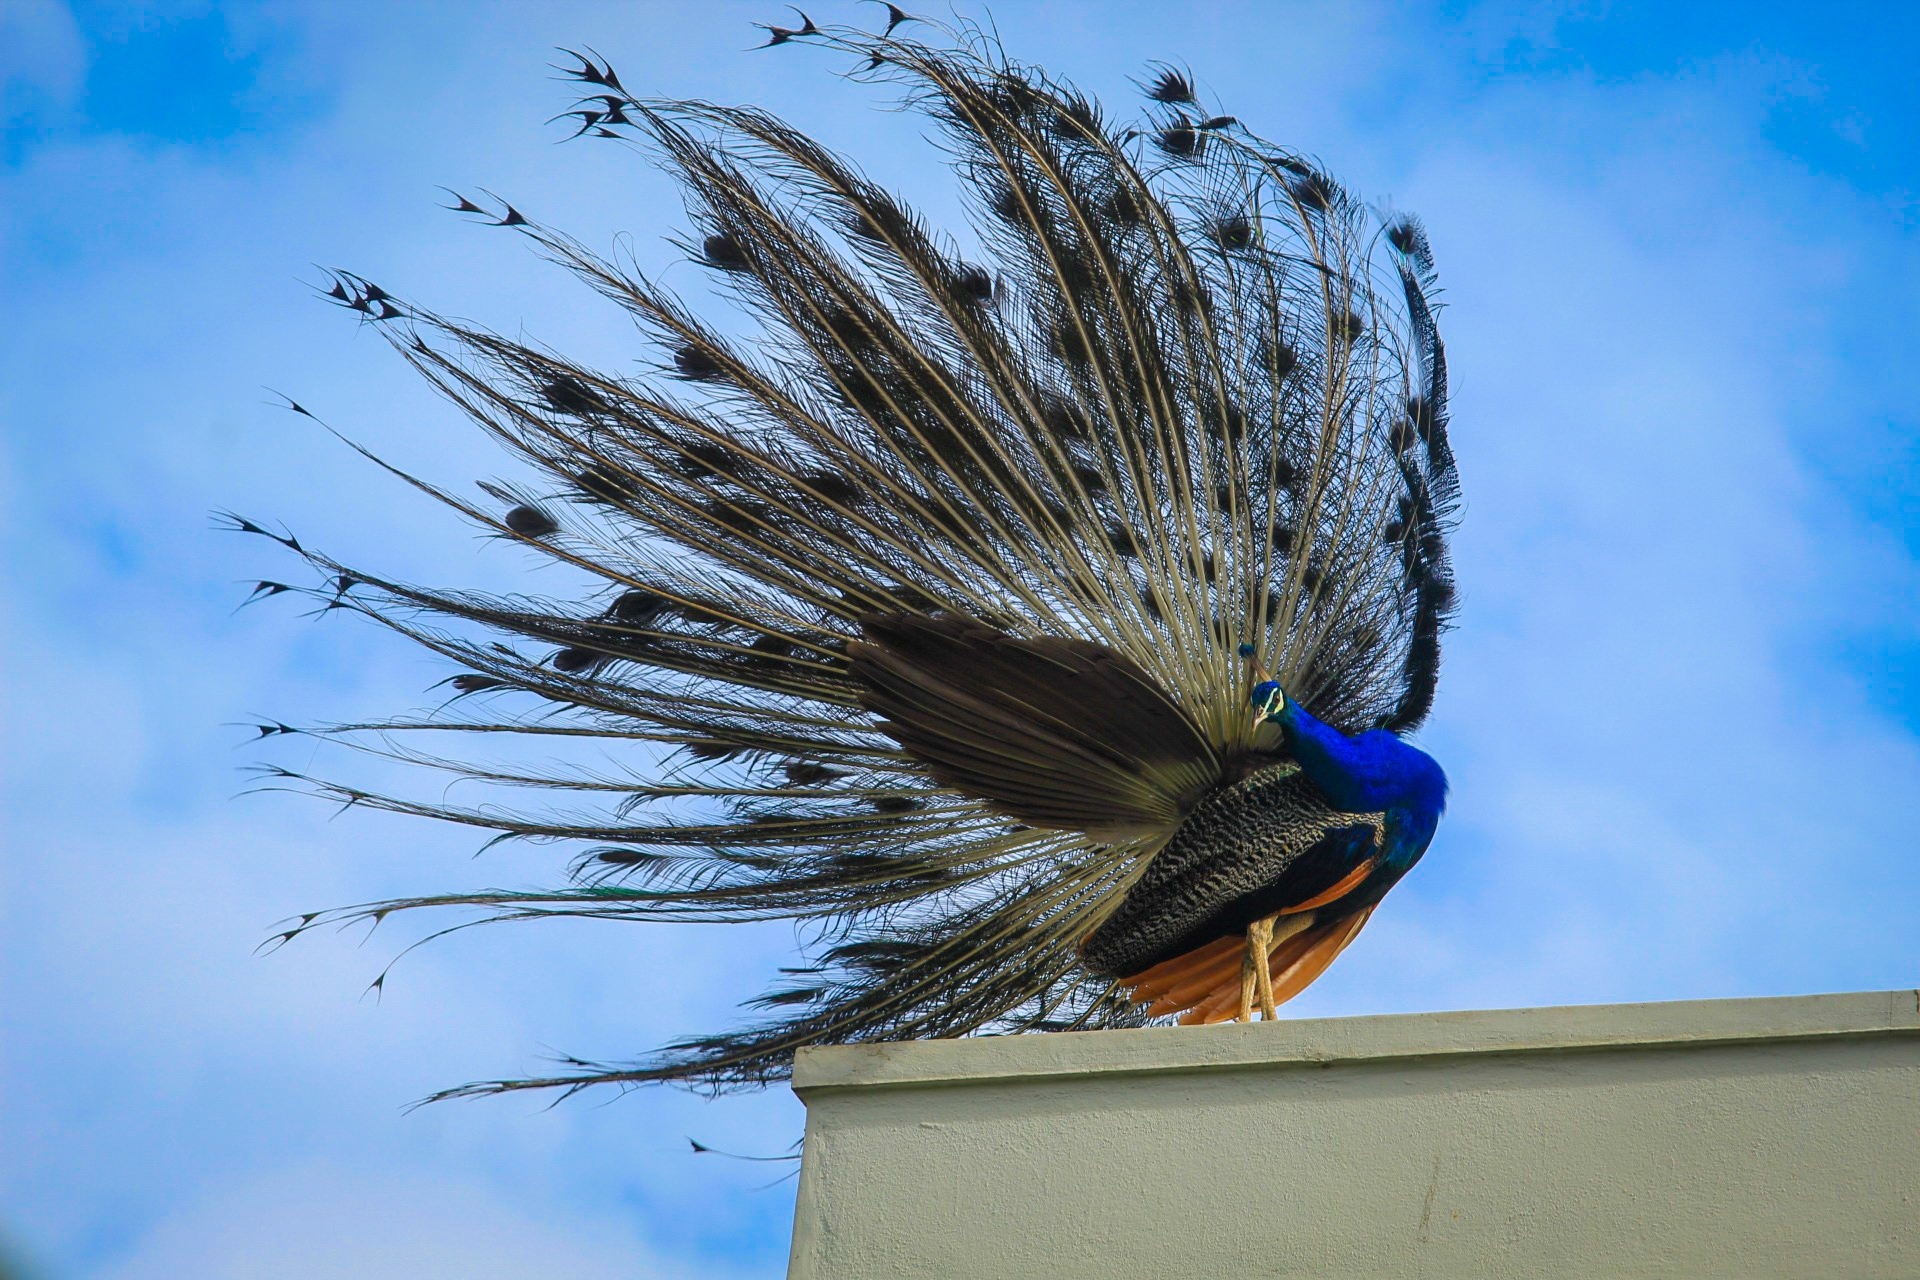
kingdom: Animalia
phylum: Chordata
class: Aves
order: Galliformes
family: Phasianidae
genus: Pavo
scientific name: Pavo cristatus
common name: Indian peafowl
